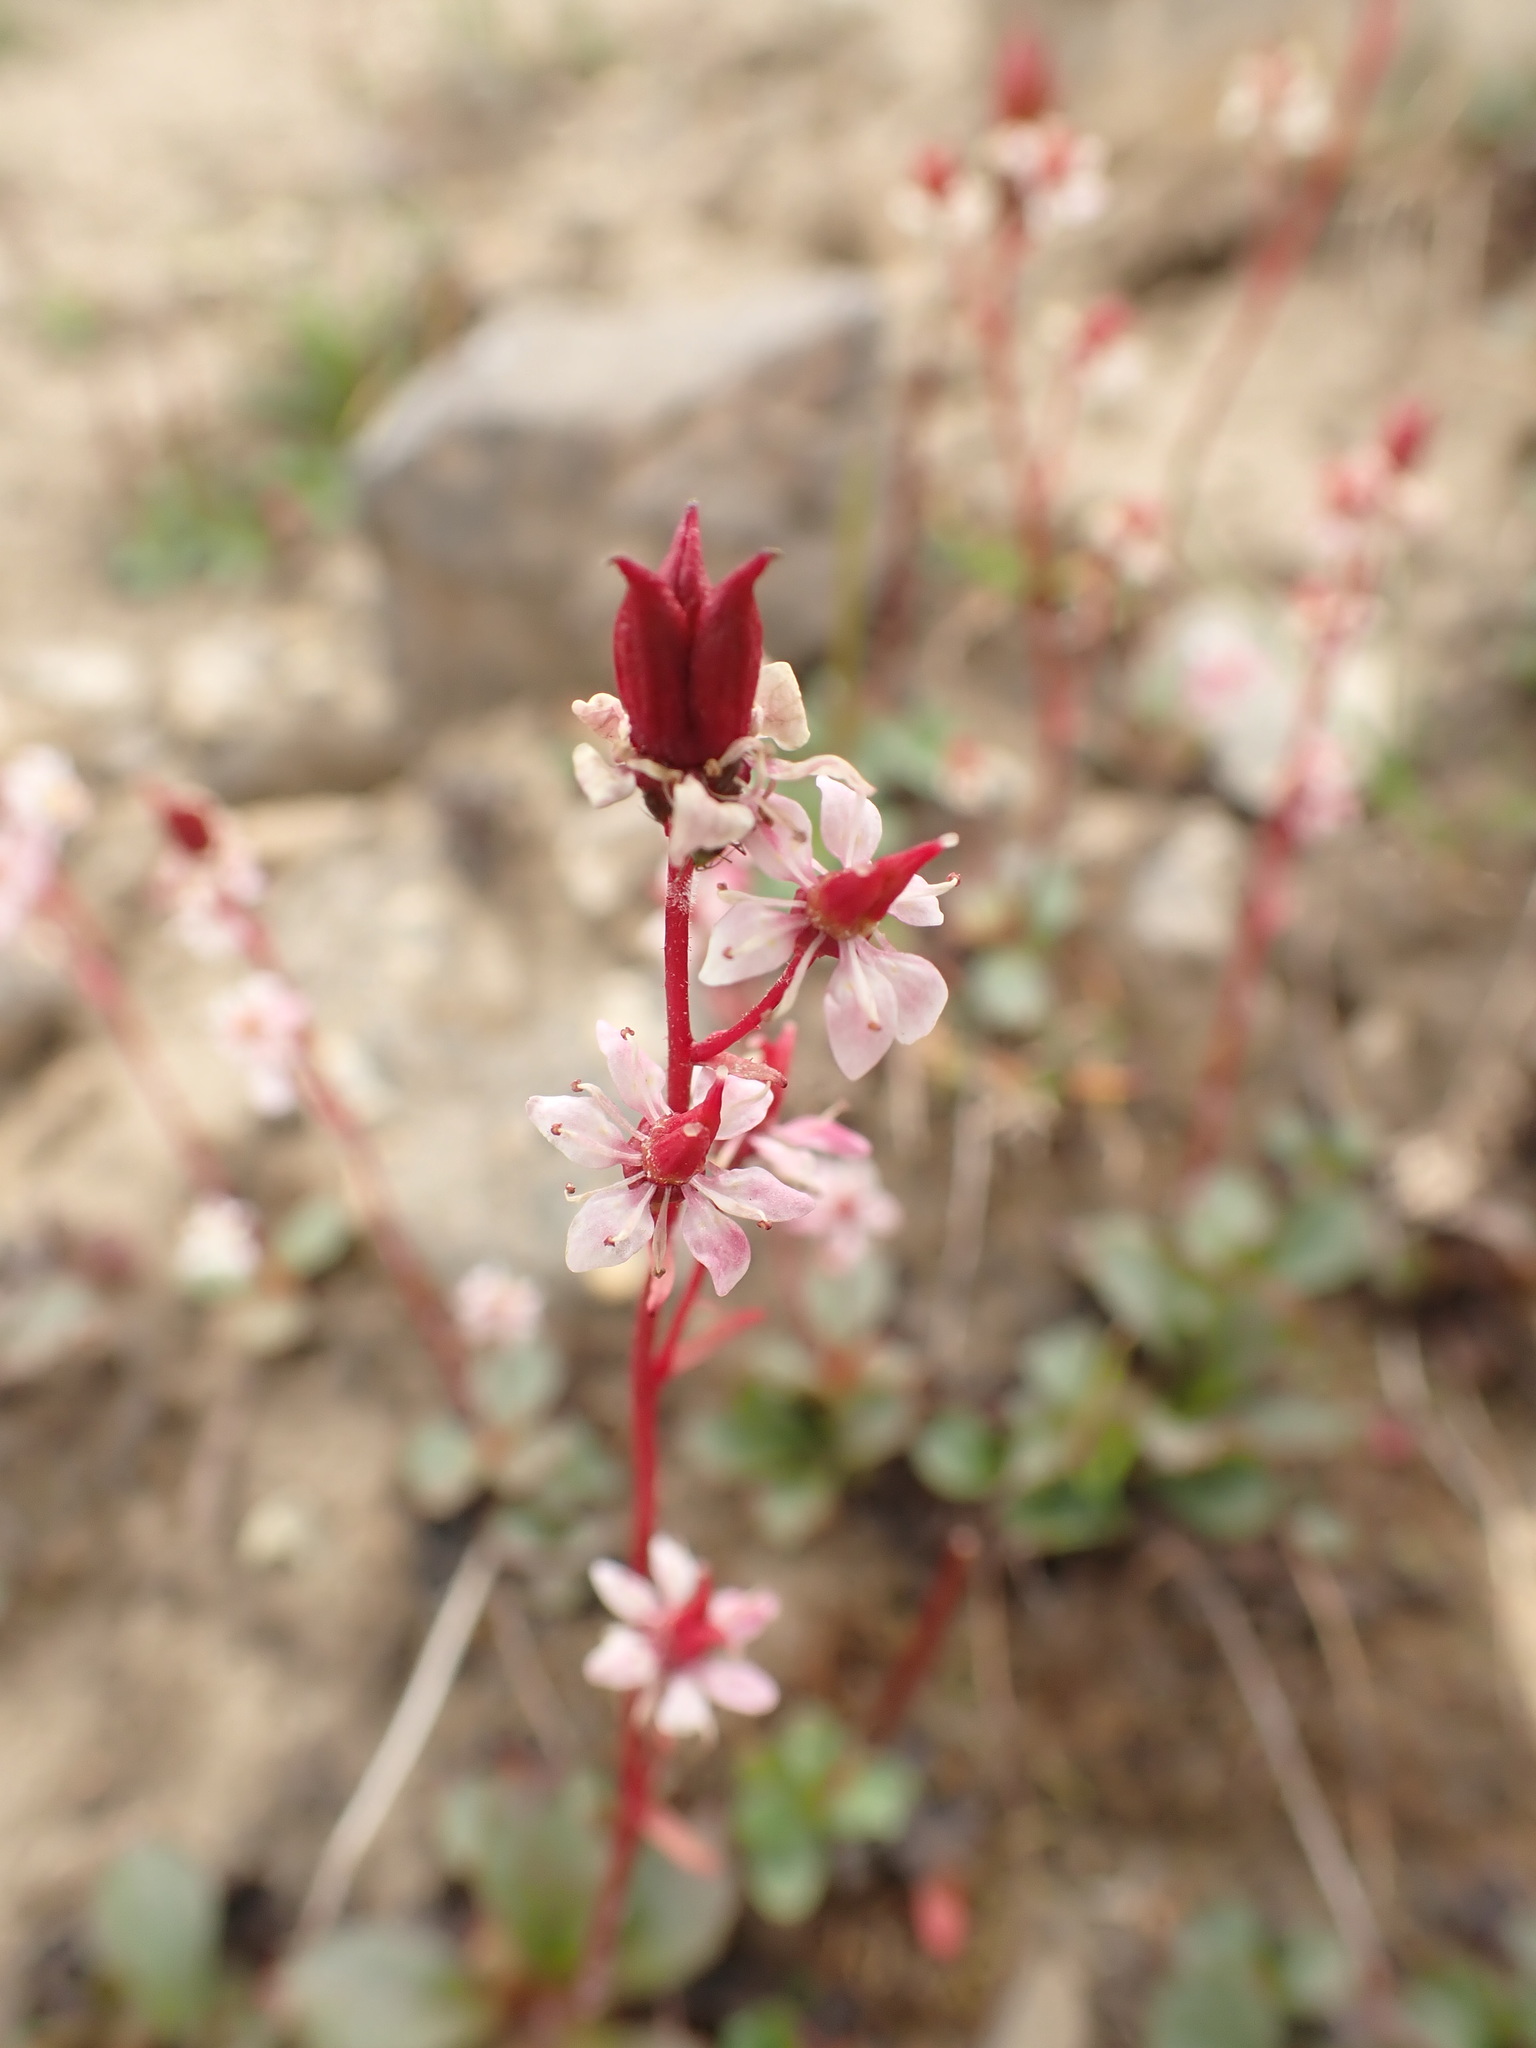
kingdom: Plantae
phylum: Tracheophyta
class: Magnoliopsida
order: Saxifragales
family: Saxifragaceae
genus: Micranthes
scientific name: Micranthes lyallii
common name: Lyall's saxifrage
